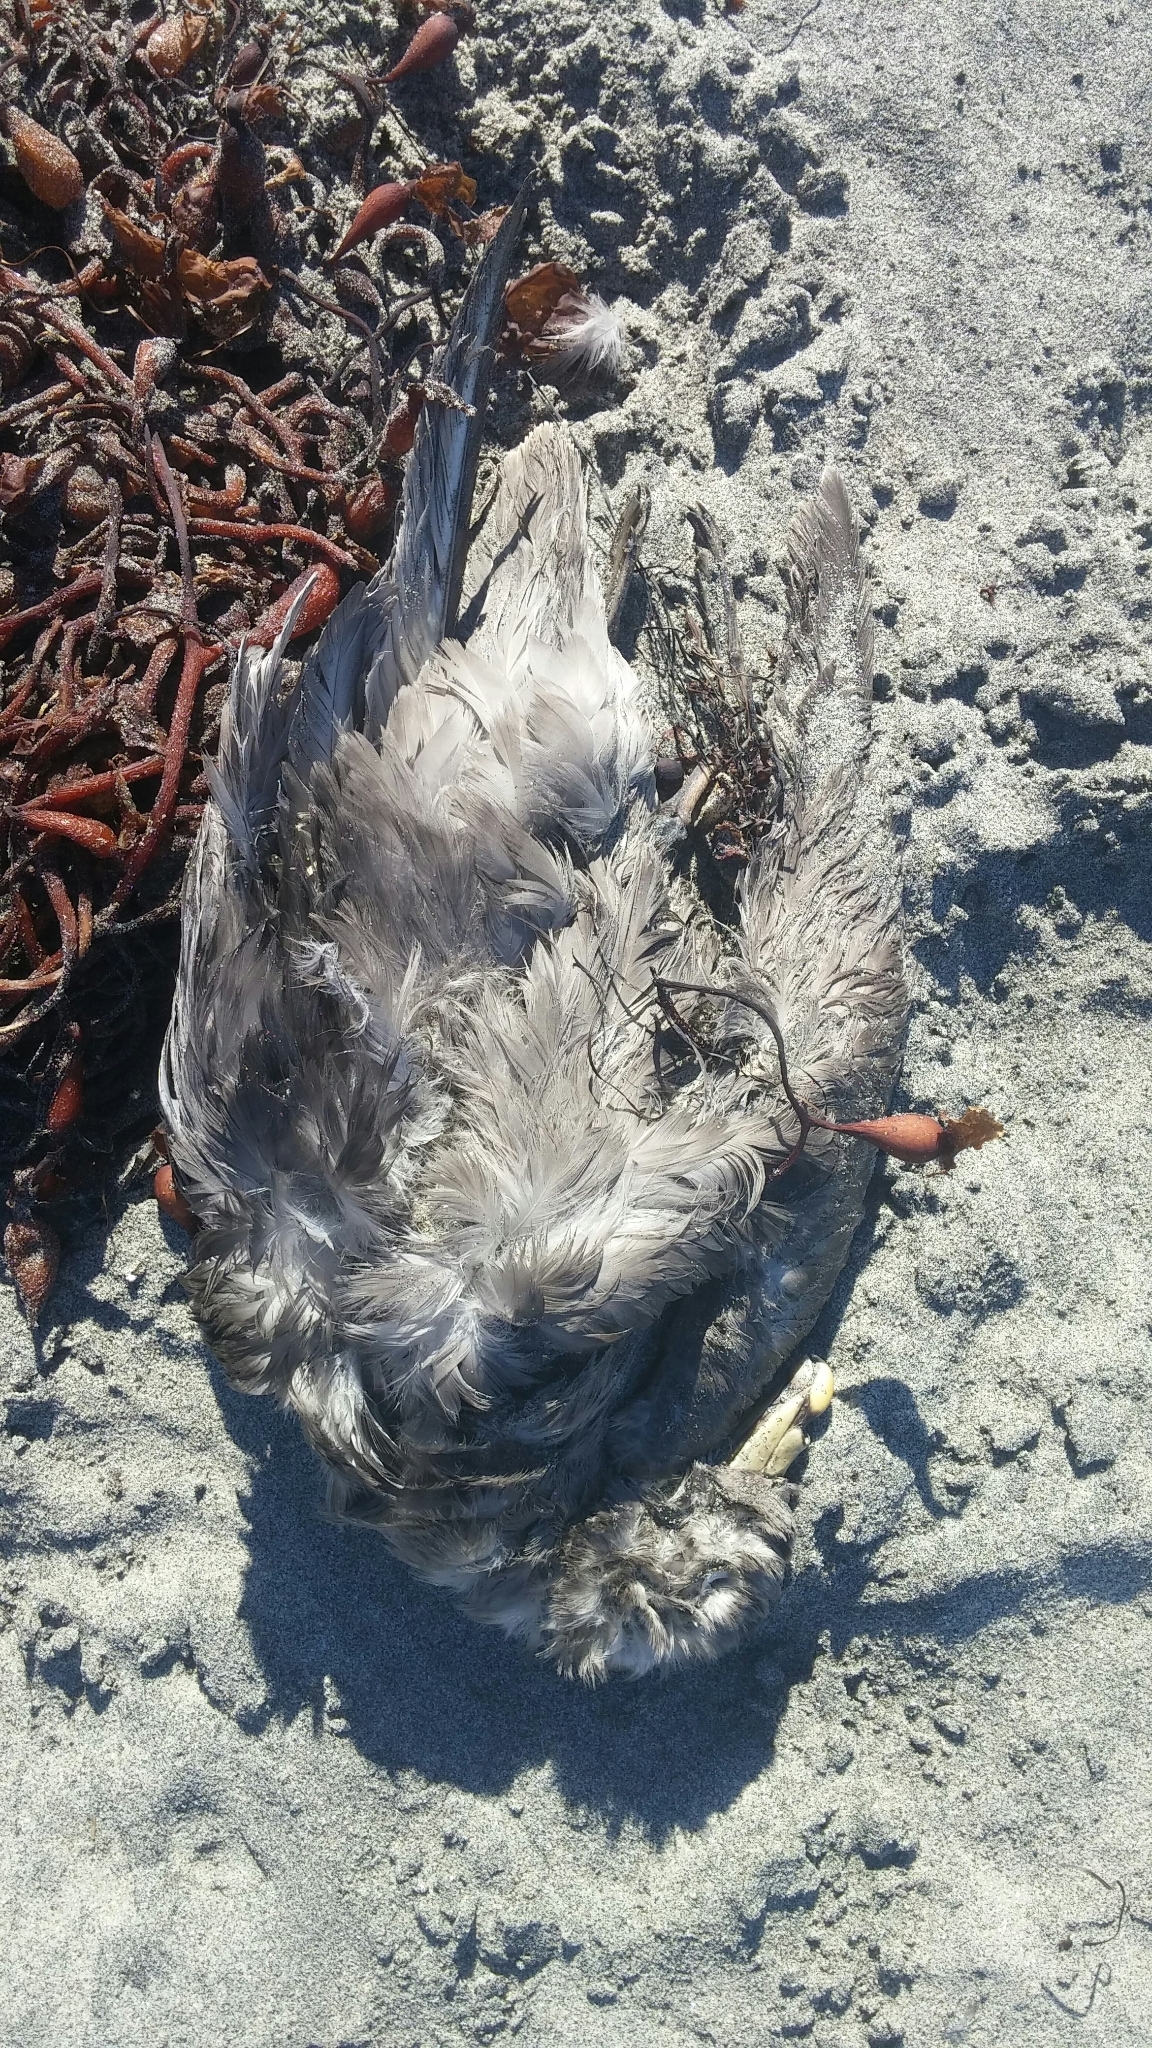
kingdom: Animalia
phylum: Chordata
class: Aves
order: Procellariiformes
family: Procellariidae
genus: Fulmarus
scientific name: Fulmarus glacialis
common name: Northern fulmar
